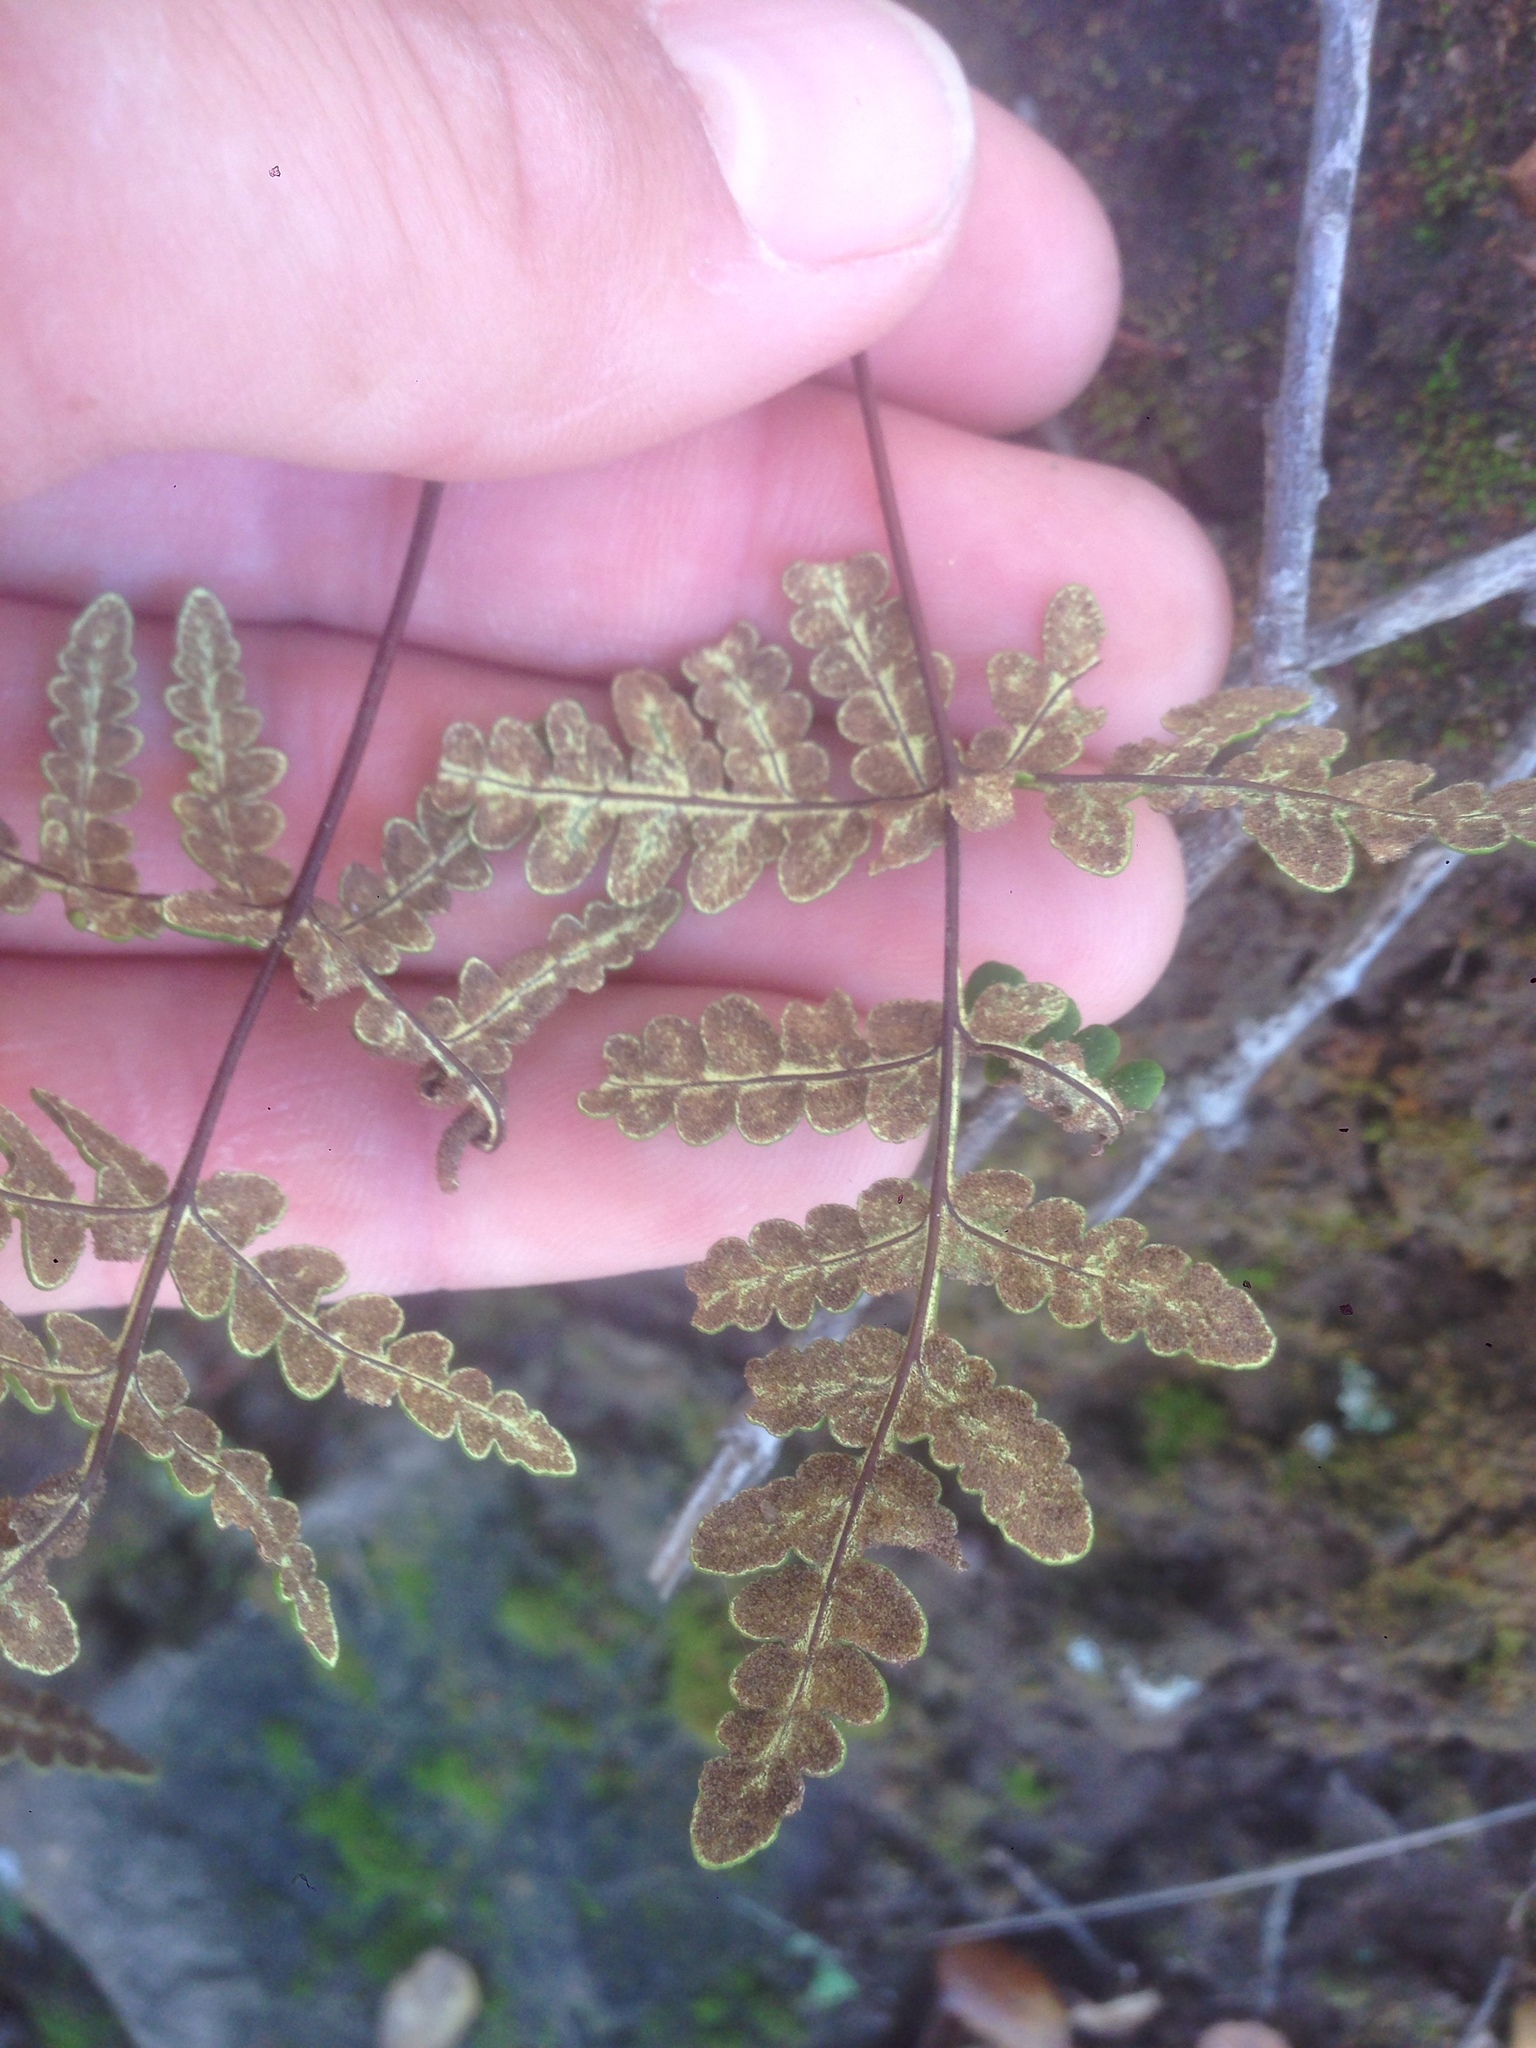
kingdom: Plantae
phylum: Tracheophyta
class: Polypodiopsida
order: Polypodiales
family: Pteridaceae
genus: Pentagramma
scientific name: Pentagramma triangularis
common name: Gold fern
